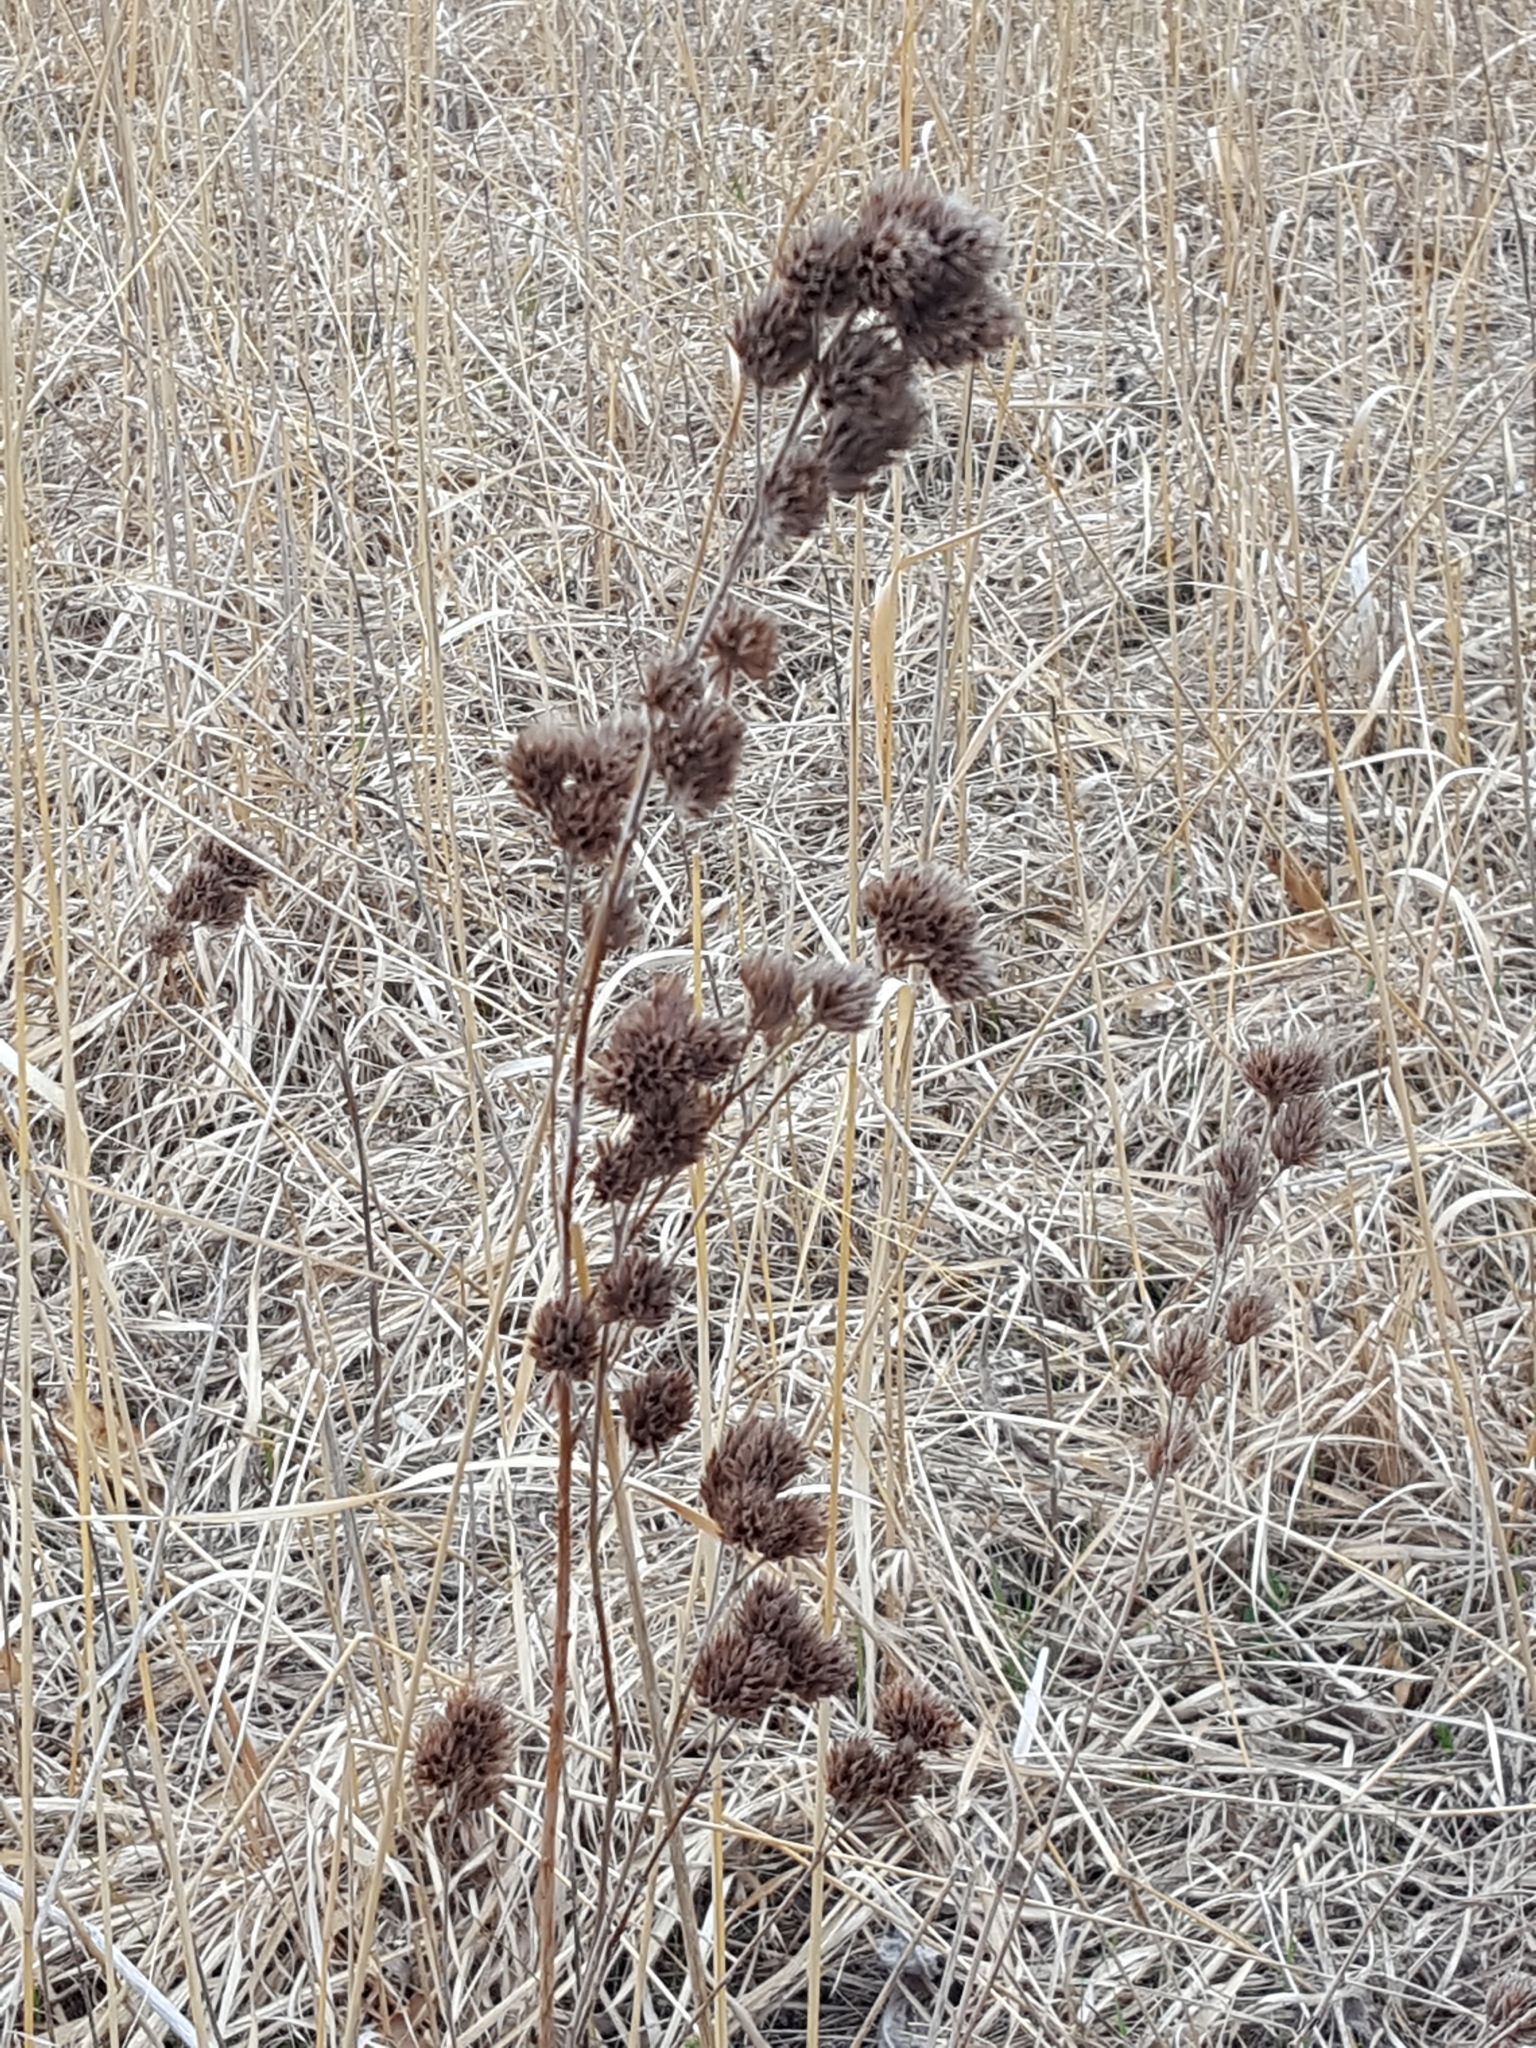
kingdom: Plantae
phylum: Tracheophyta
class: Magnoliopsida
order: Fabales
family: Fabaceae
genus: Lespedeza
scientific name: Lespedeza capitata
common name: Dusty clover
